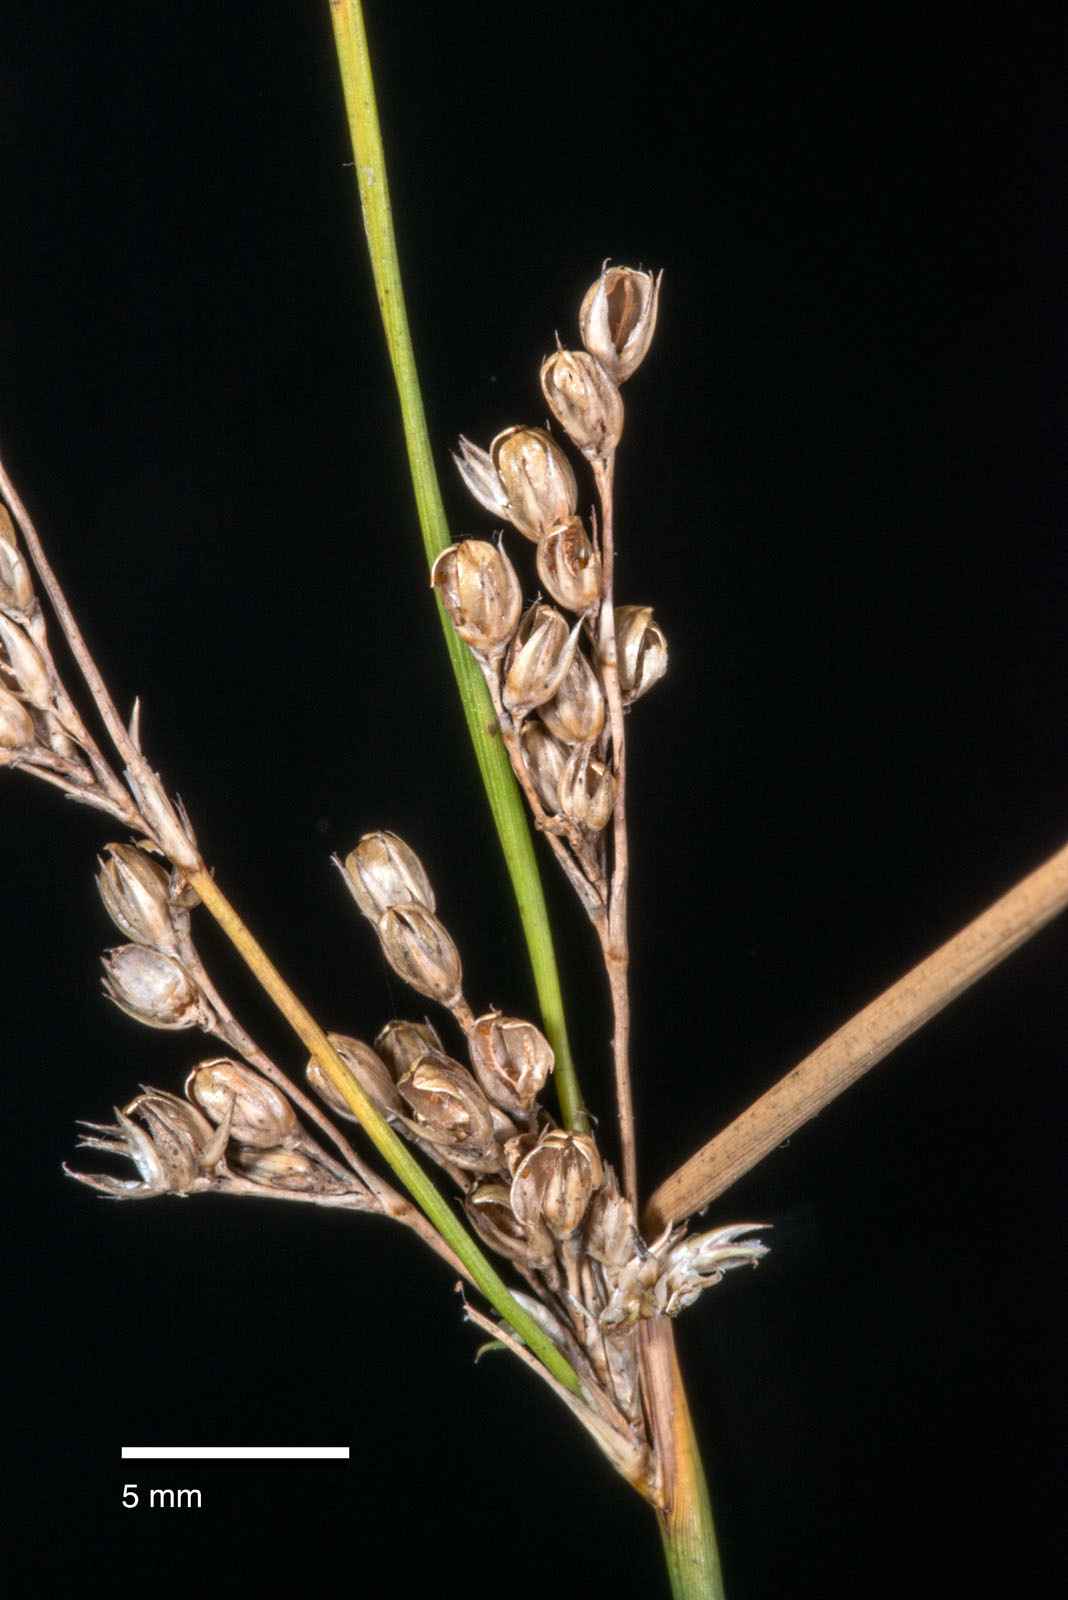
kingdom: Plantae
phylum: Tracheophyta
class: Liliopsida
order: Poales
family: Juncaceae
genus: Juncus
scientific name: Juncus usitatus
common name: Rush
